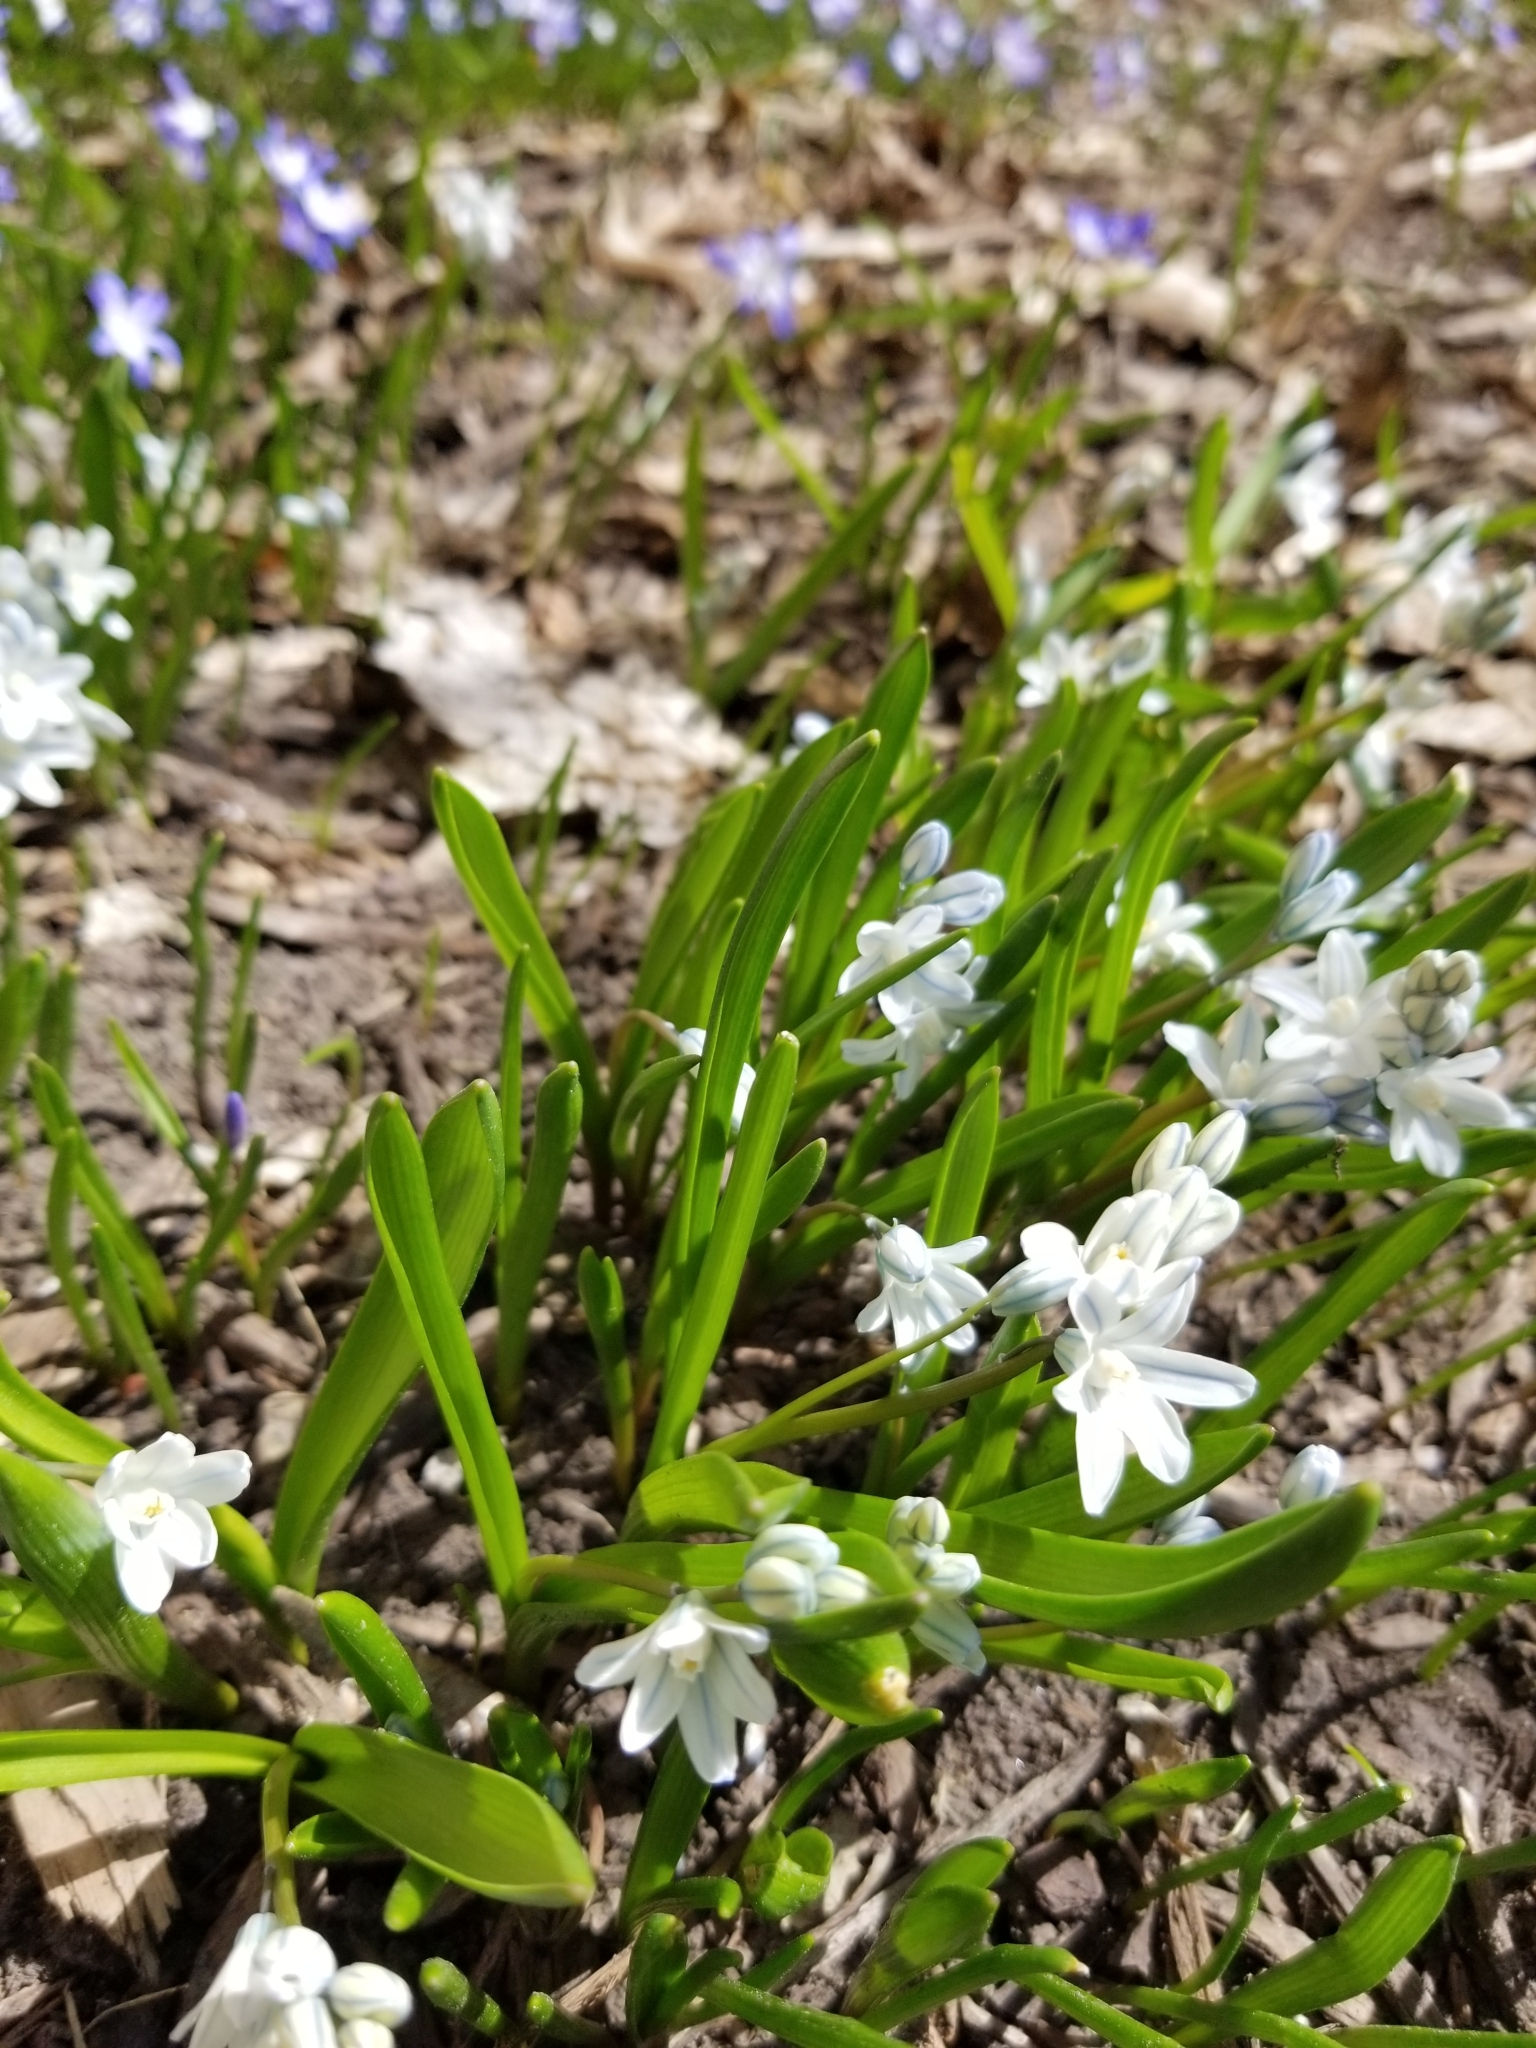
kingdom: Plantae
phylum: Tracheophyta
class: Liliopsida
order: Asparagales
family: Asparagaceae
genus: Puschkinia
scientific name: Puschkinia scilloides
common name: Striped squill
